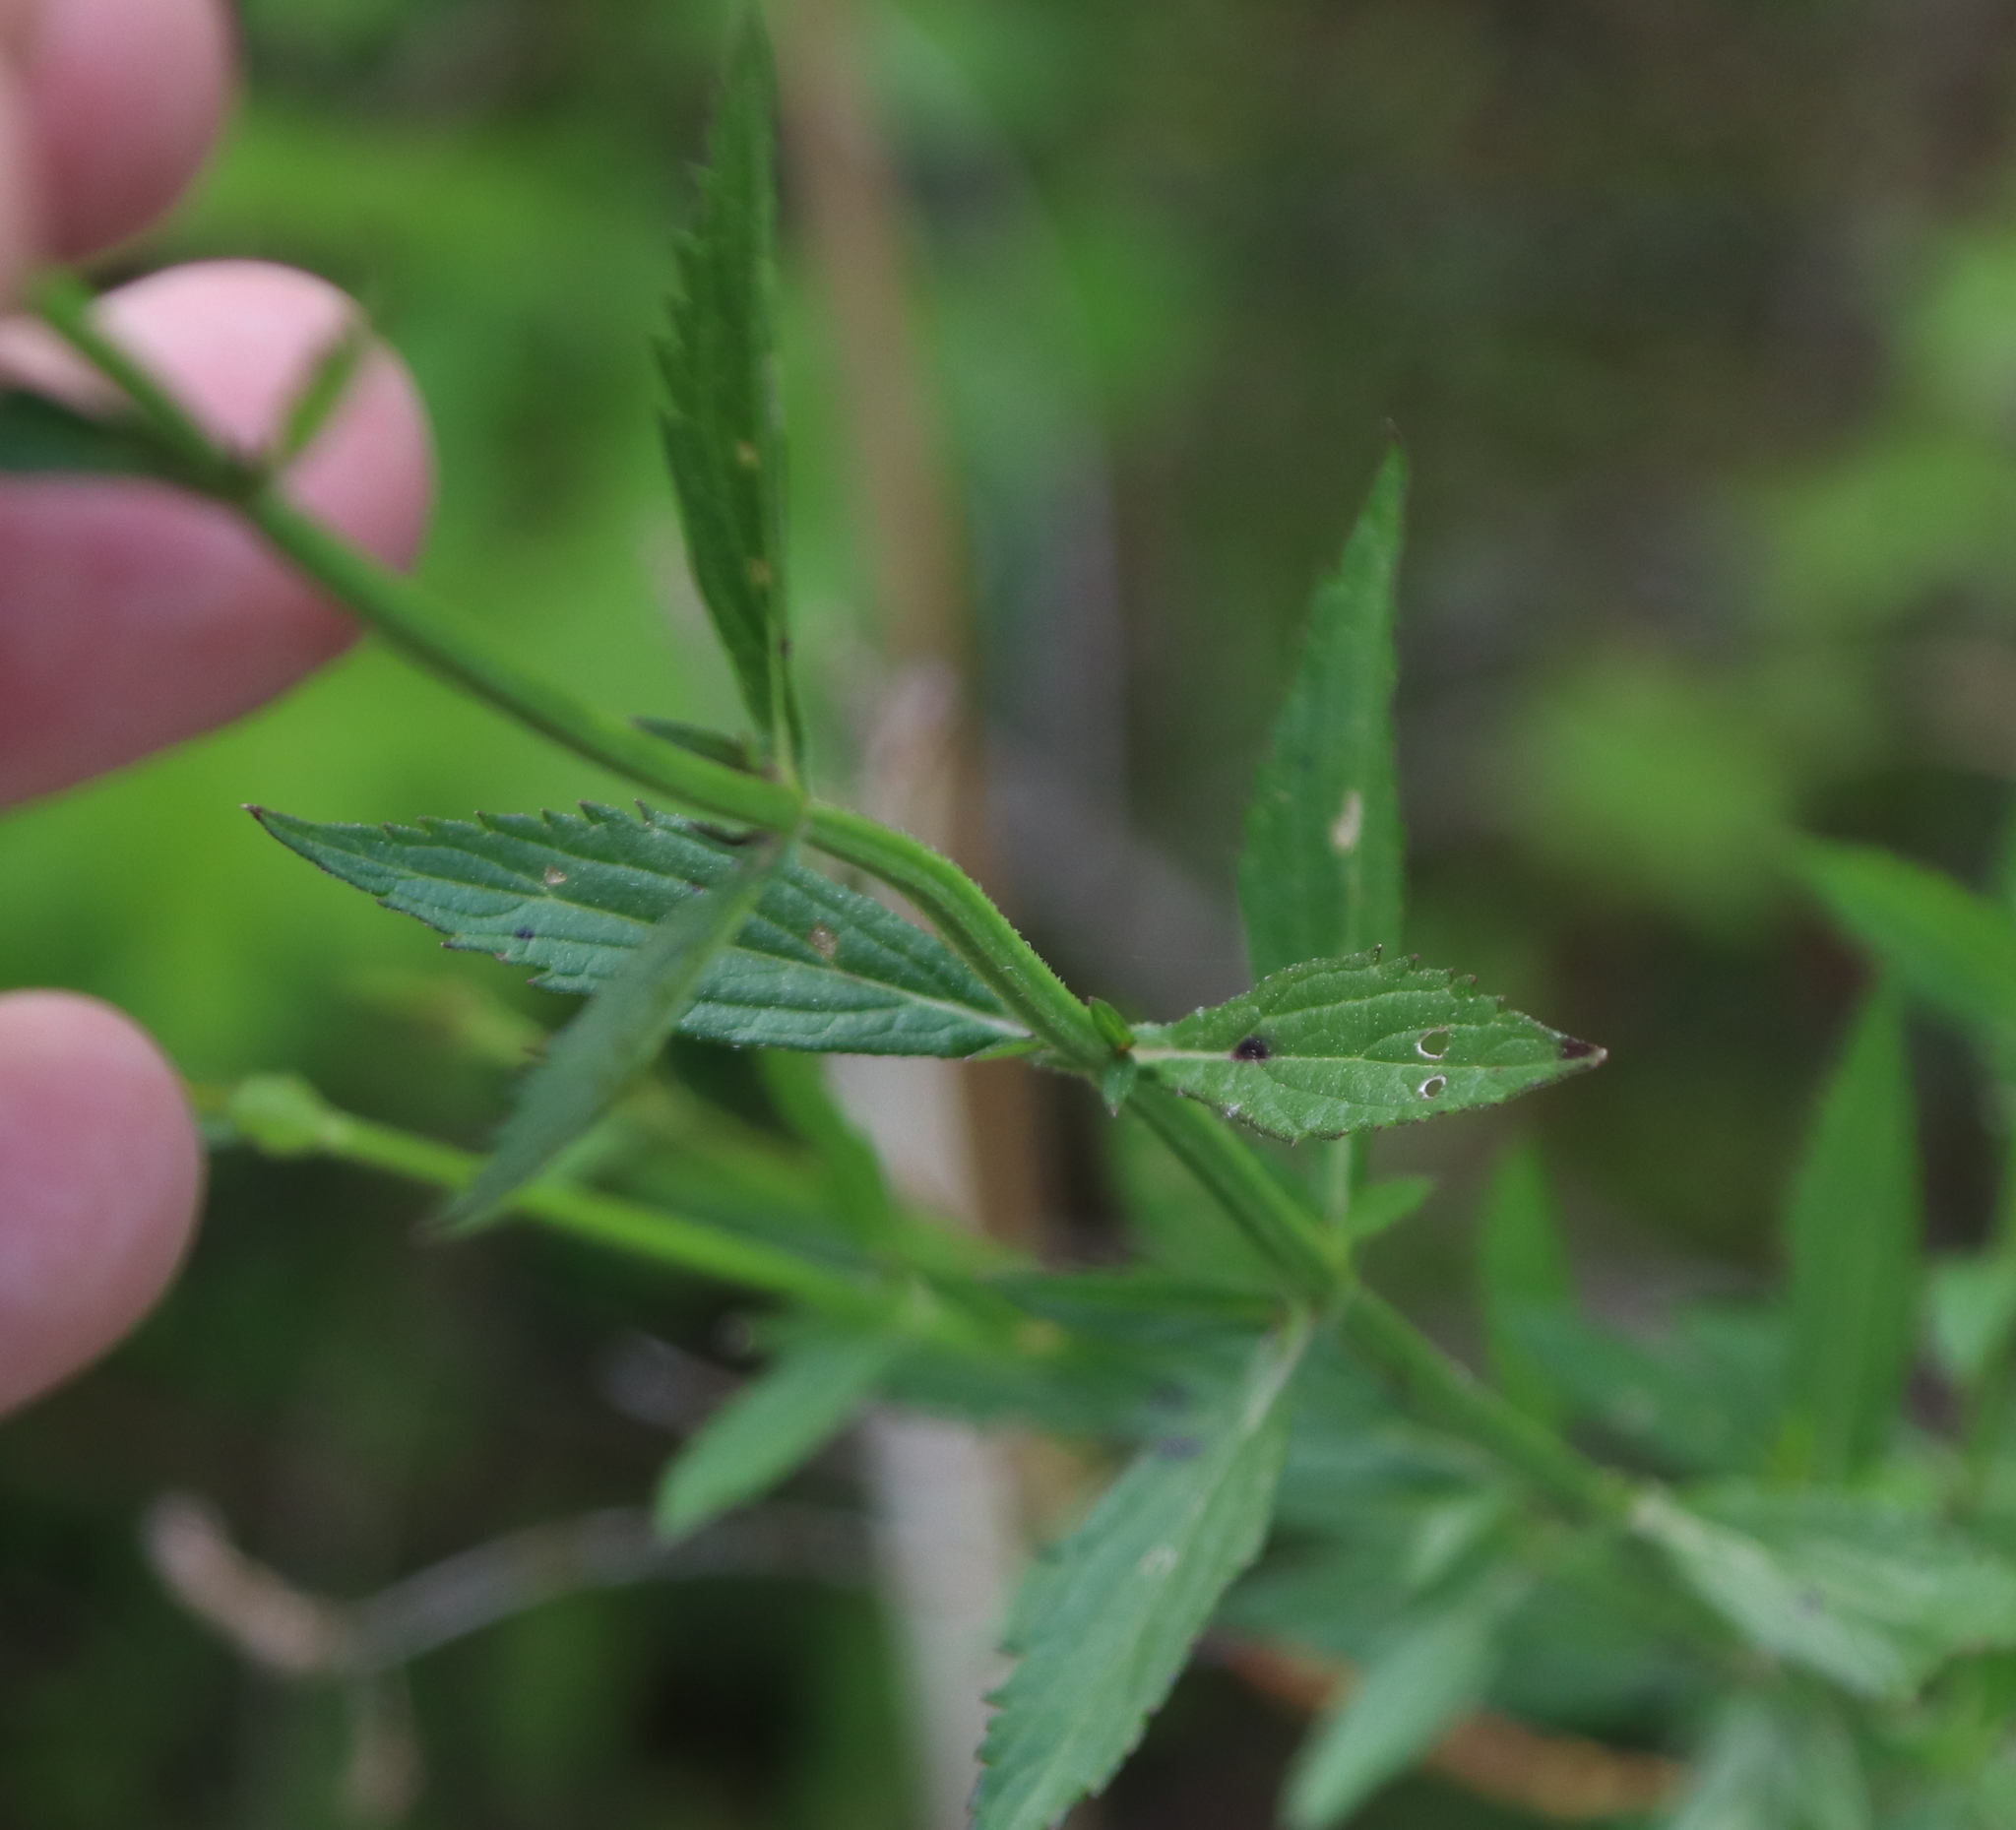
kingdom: Plantae
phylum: Tracheophyta
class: Magnoliopsida
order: Lamiales
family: Verbenaceae
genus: Verbena
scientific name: Verbena brasiliensis
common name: Brazilian vervain
